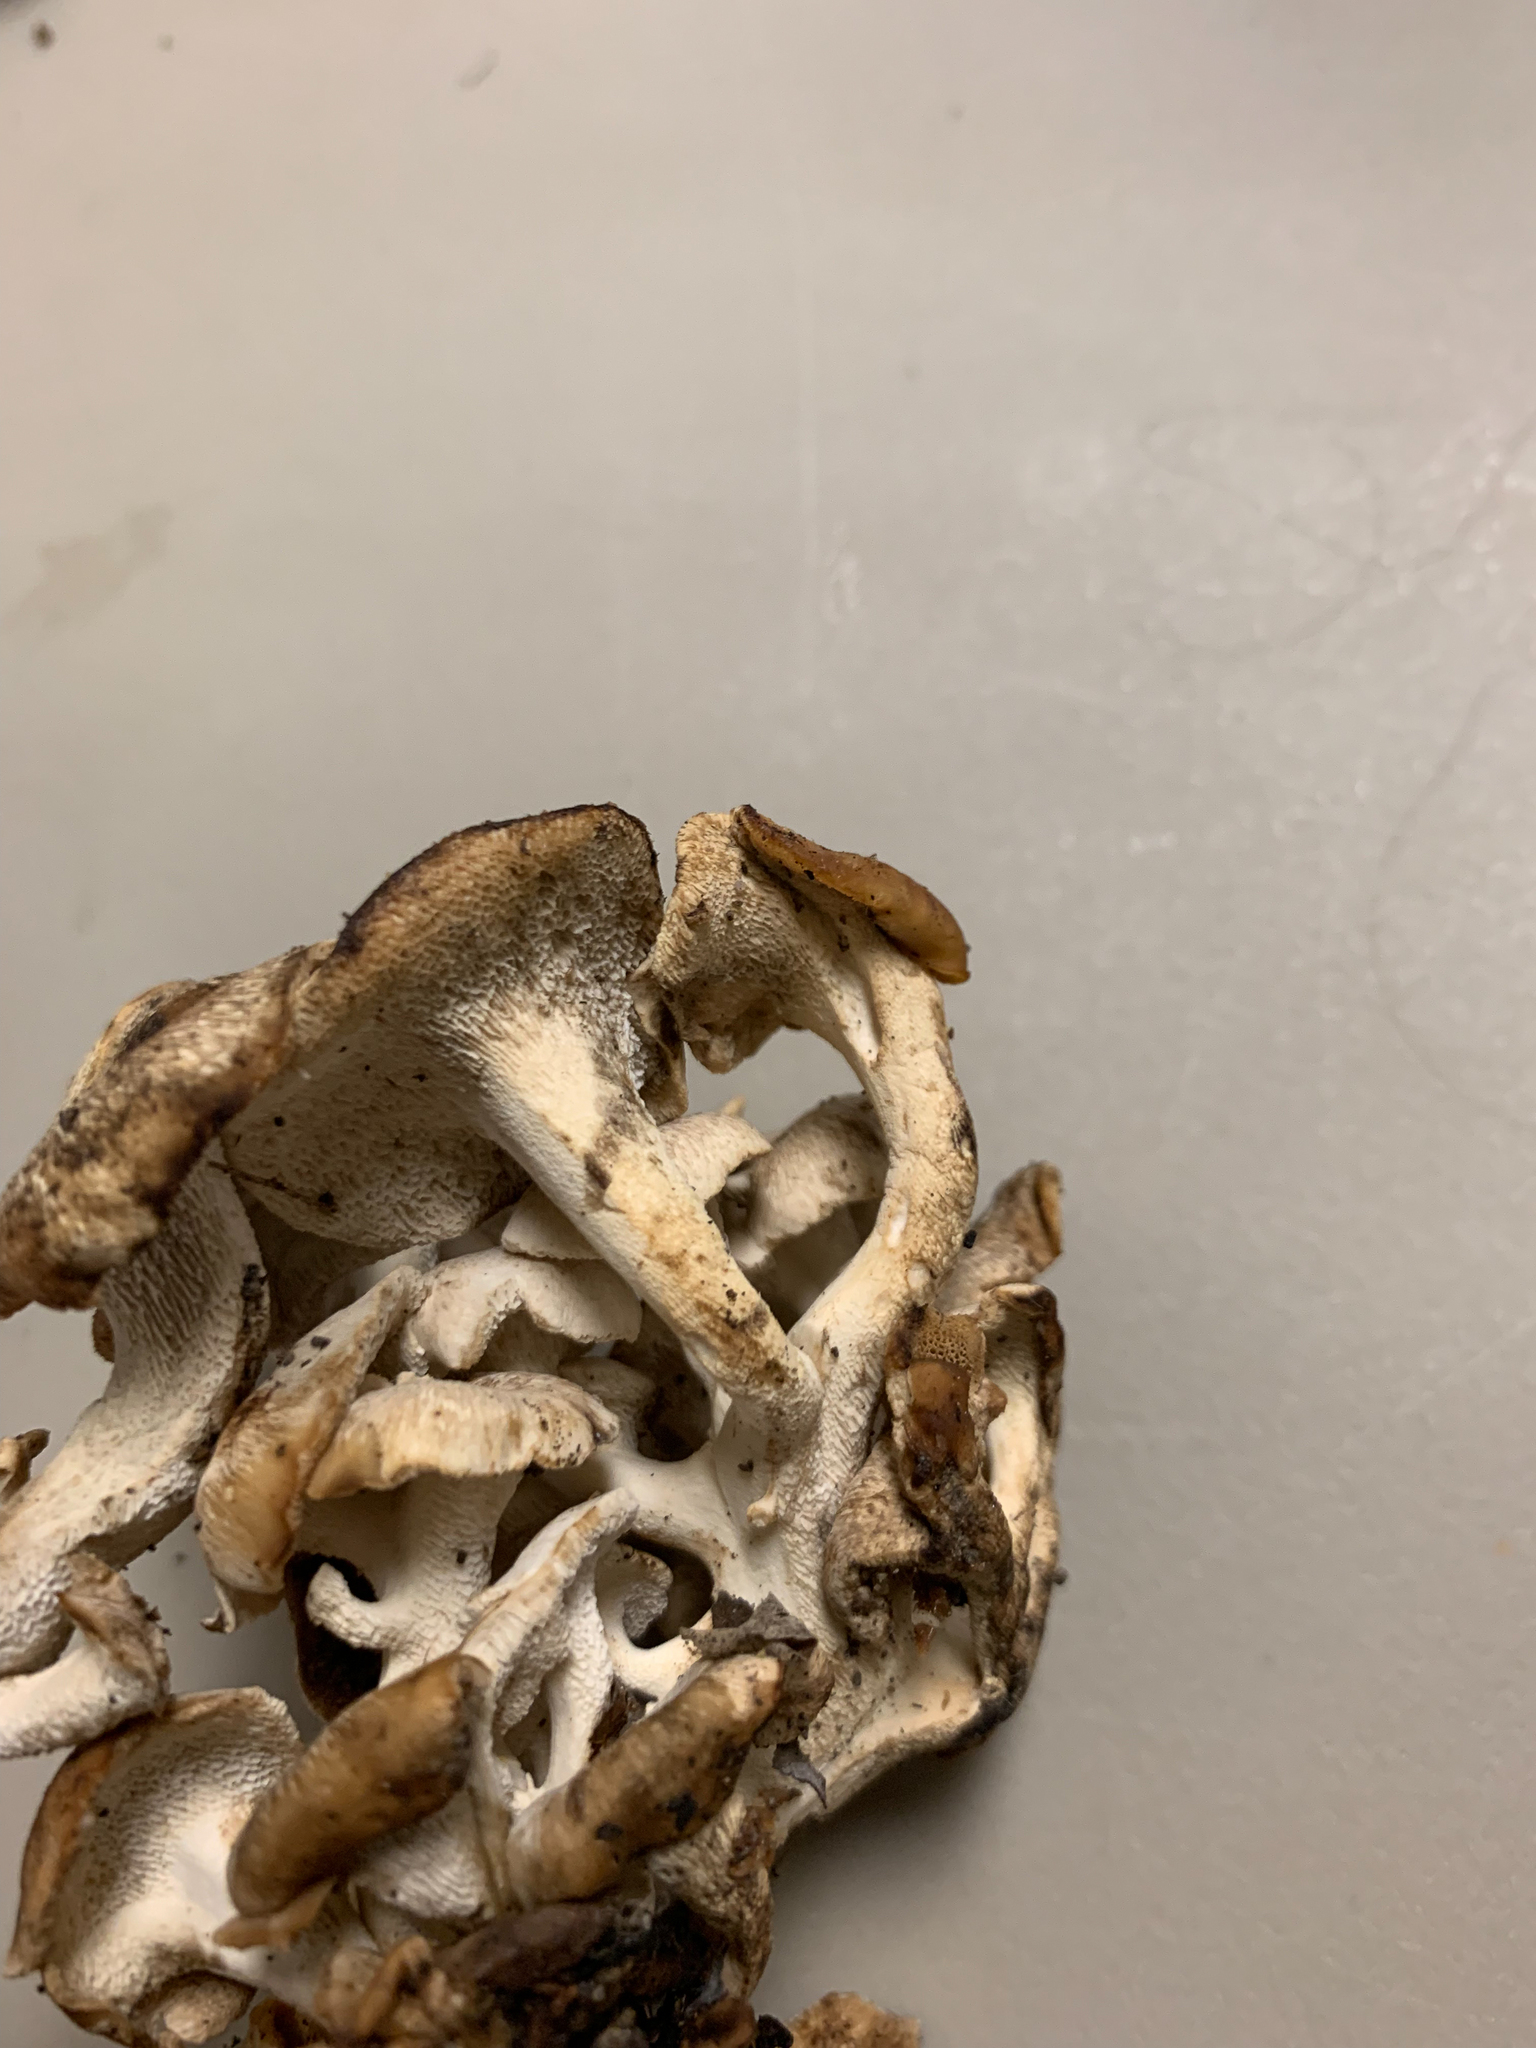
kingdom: Fungi
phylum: Basidiomycota
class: Agaricomycetes
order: Polyporales
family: Polyporaceae
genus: Polyporus
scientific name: Polyporus umbellatus
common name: Umbrella polypore
